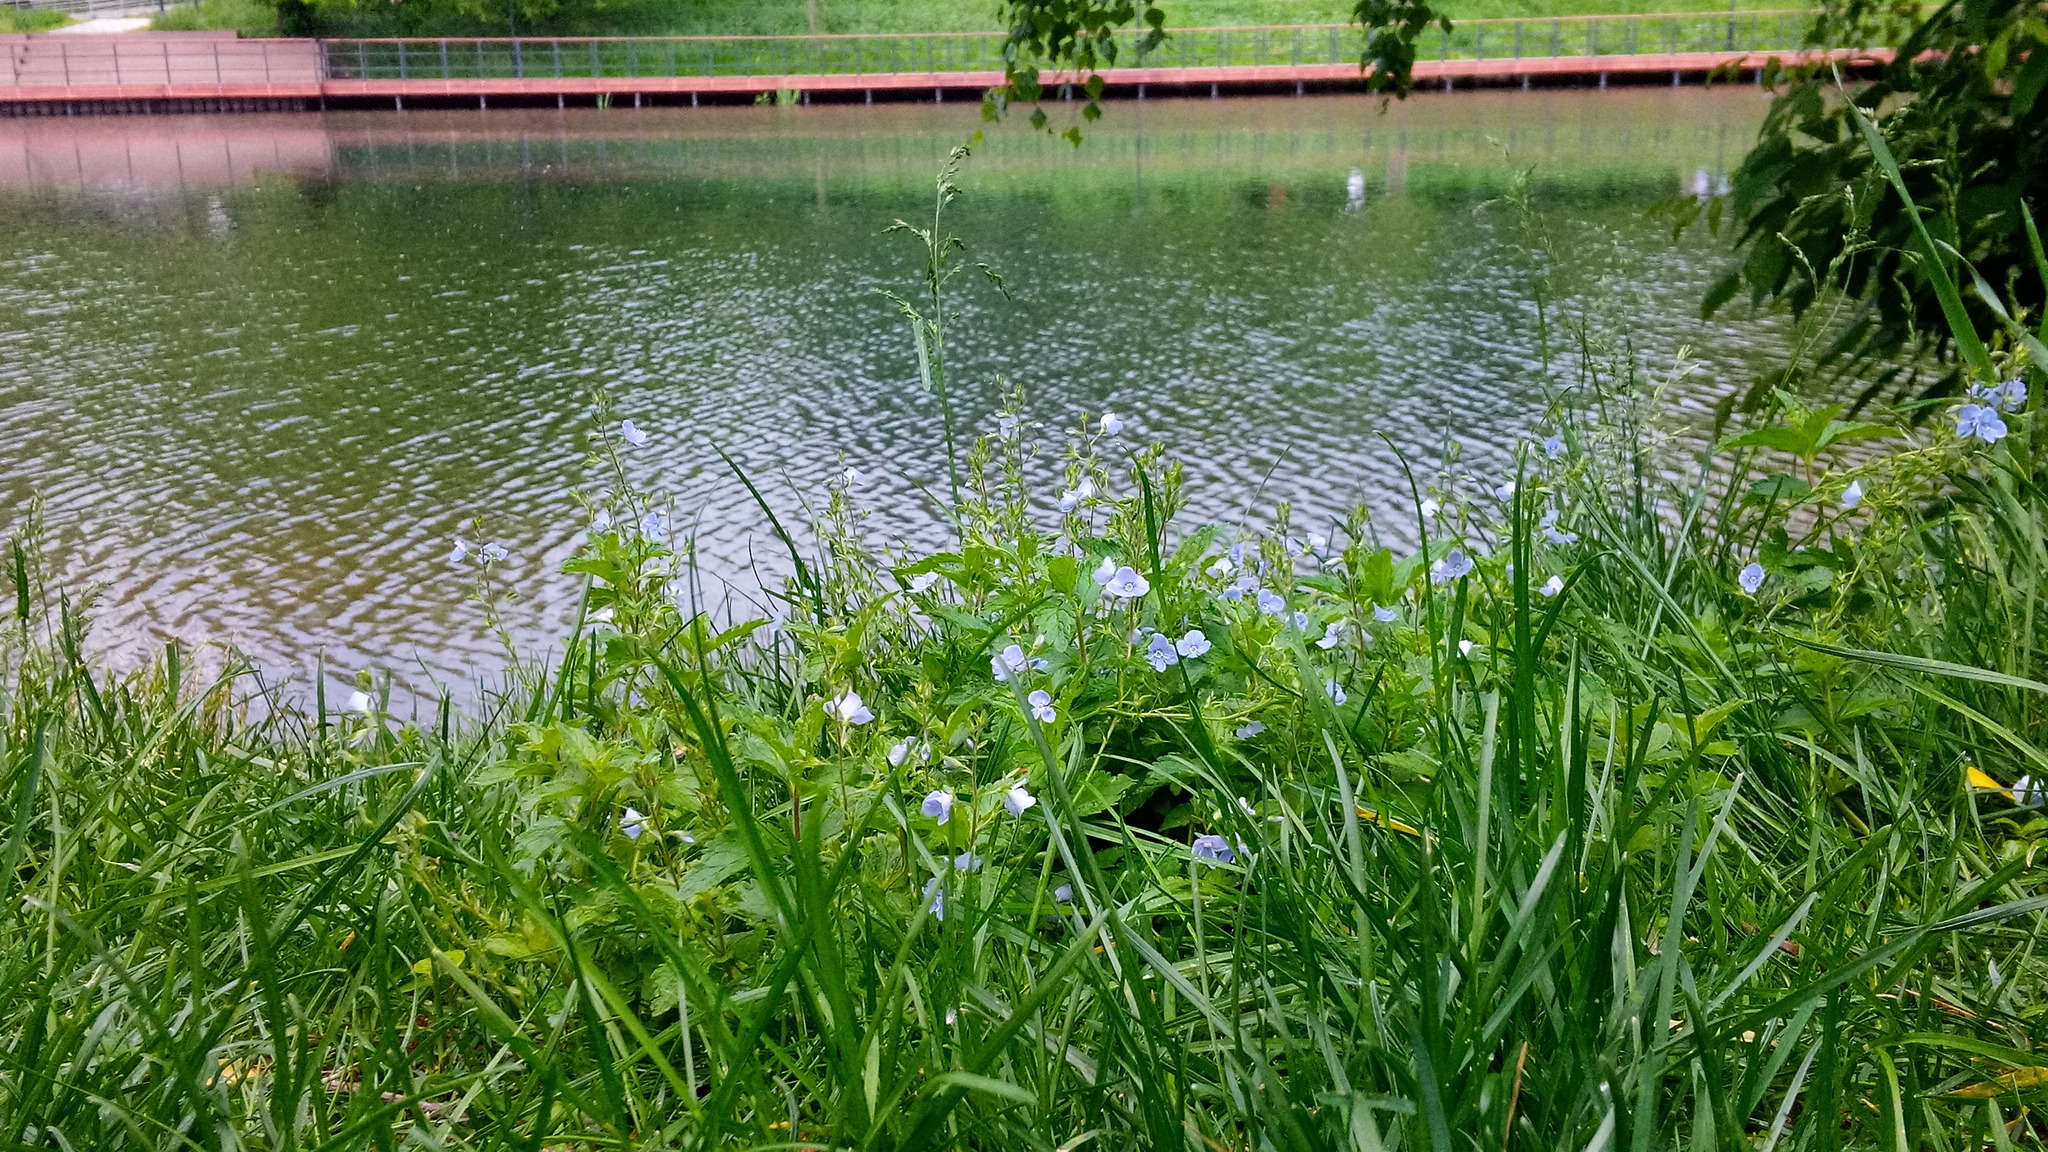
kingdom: Plantae
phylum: Tracheophyta
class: Magnoliopsida
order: Lamiales
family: Plantaginaceae
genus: Veronica
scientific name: Veronica chamaedrys
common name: Germander speedwell
